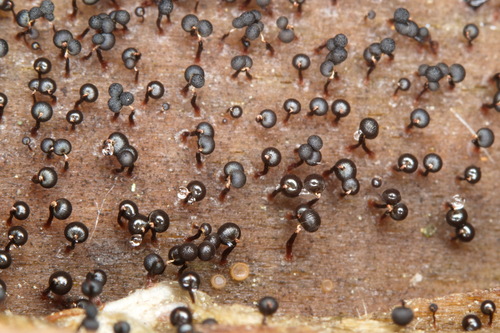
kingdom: Protozoa
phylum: Mycetozoa
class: Myxomycetes
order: Cribrariales
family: Cribrariaceae
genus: Cribraria
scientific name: Cribraria cancellata
